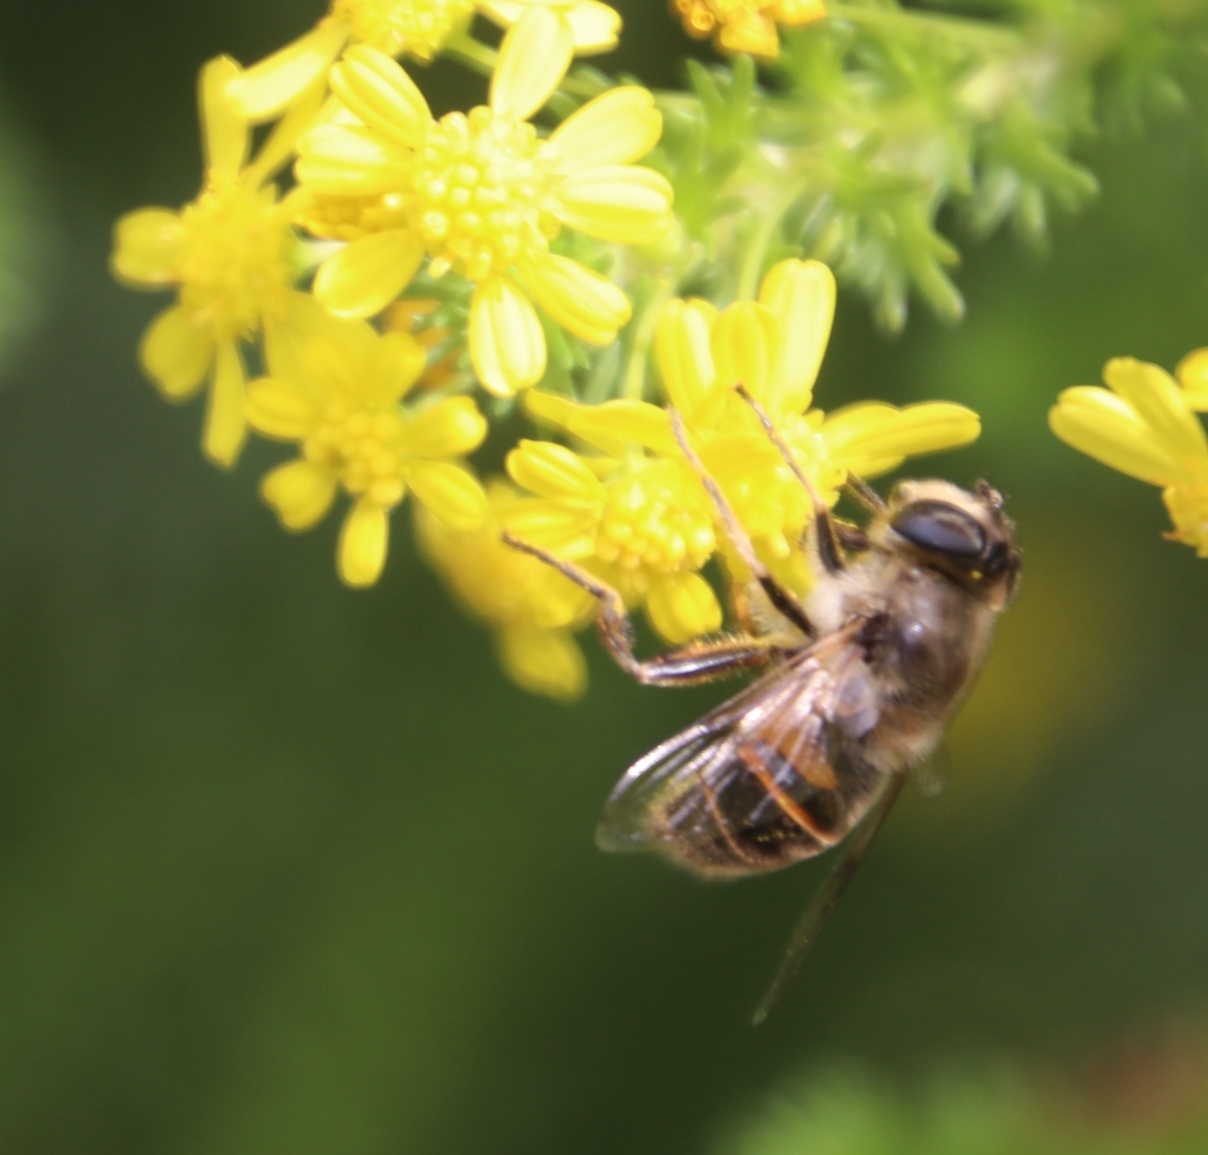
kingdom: Animalia
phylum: Arthropoda
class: Insecta
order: Diptera
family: Syrphidae
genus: Eristalis
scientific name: Eristalis tenax
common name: Drone fly
